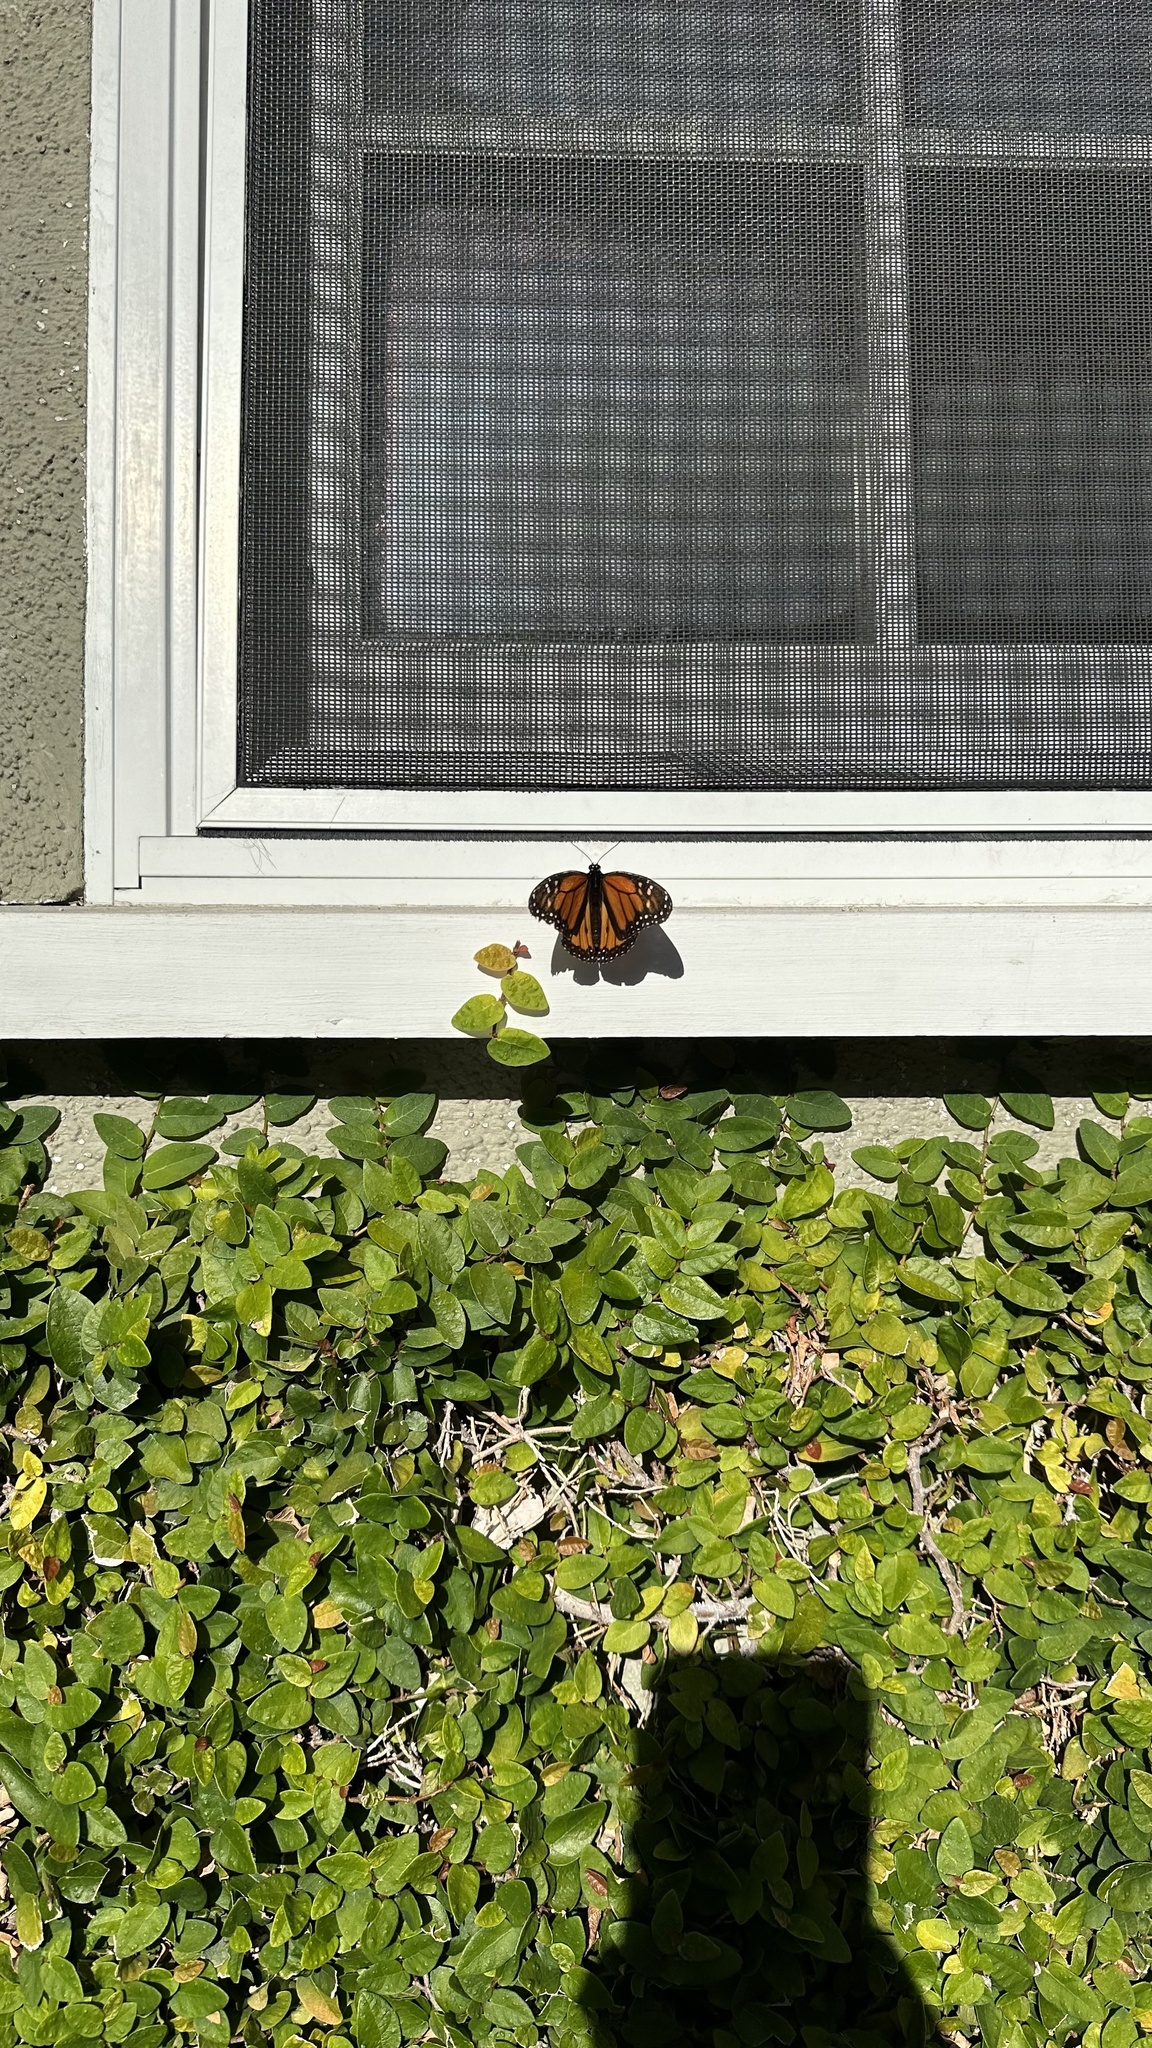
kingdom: Animalia
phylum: Arthropoda
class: Insecta
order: Lepidoptera
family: Nymphalidae
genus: Danaus
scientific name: Danaus plexippus
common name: Monarch
